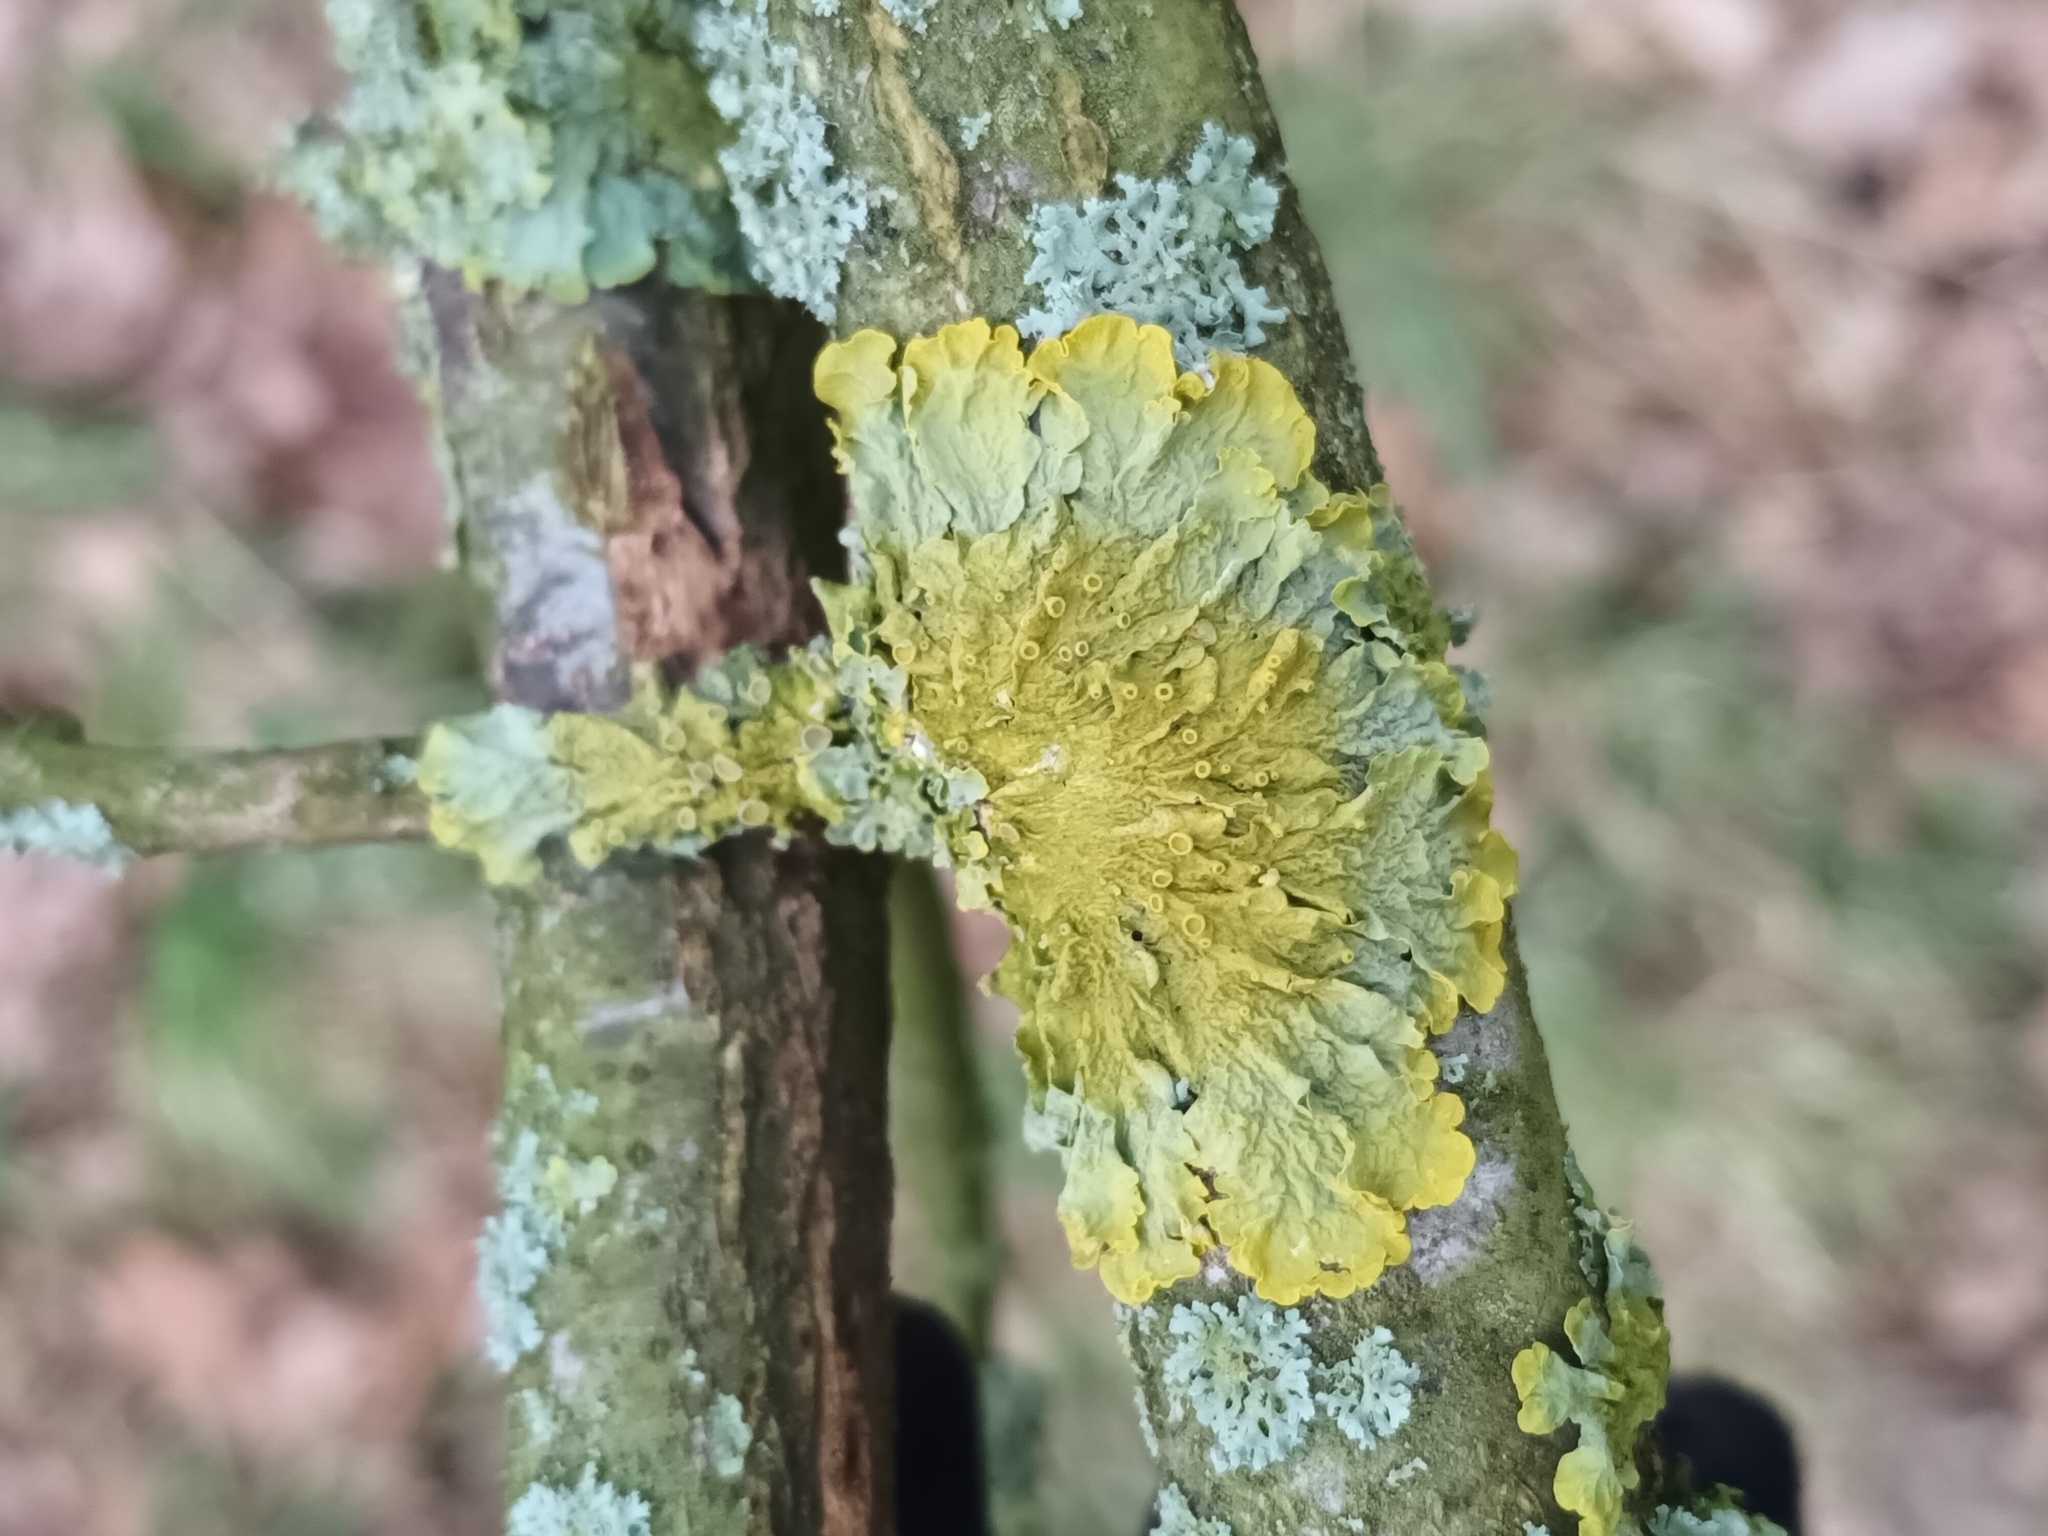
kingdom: Fungi
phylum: Ascomycota
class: Lecanoromycetes
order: Teloschistales
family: Teloschistaceae
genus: Xanthoria
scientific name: Xanthoria parietina
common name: Common orange lichen
